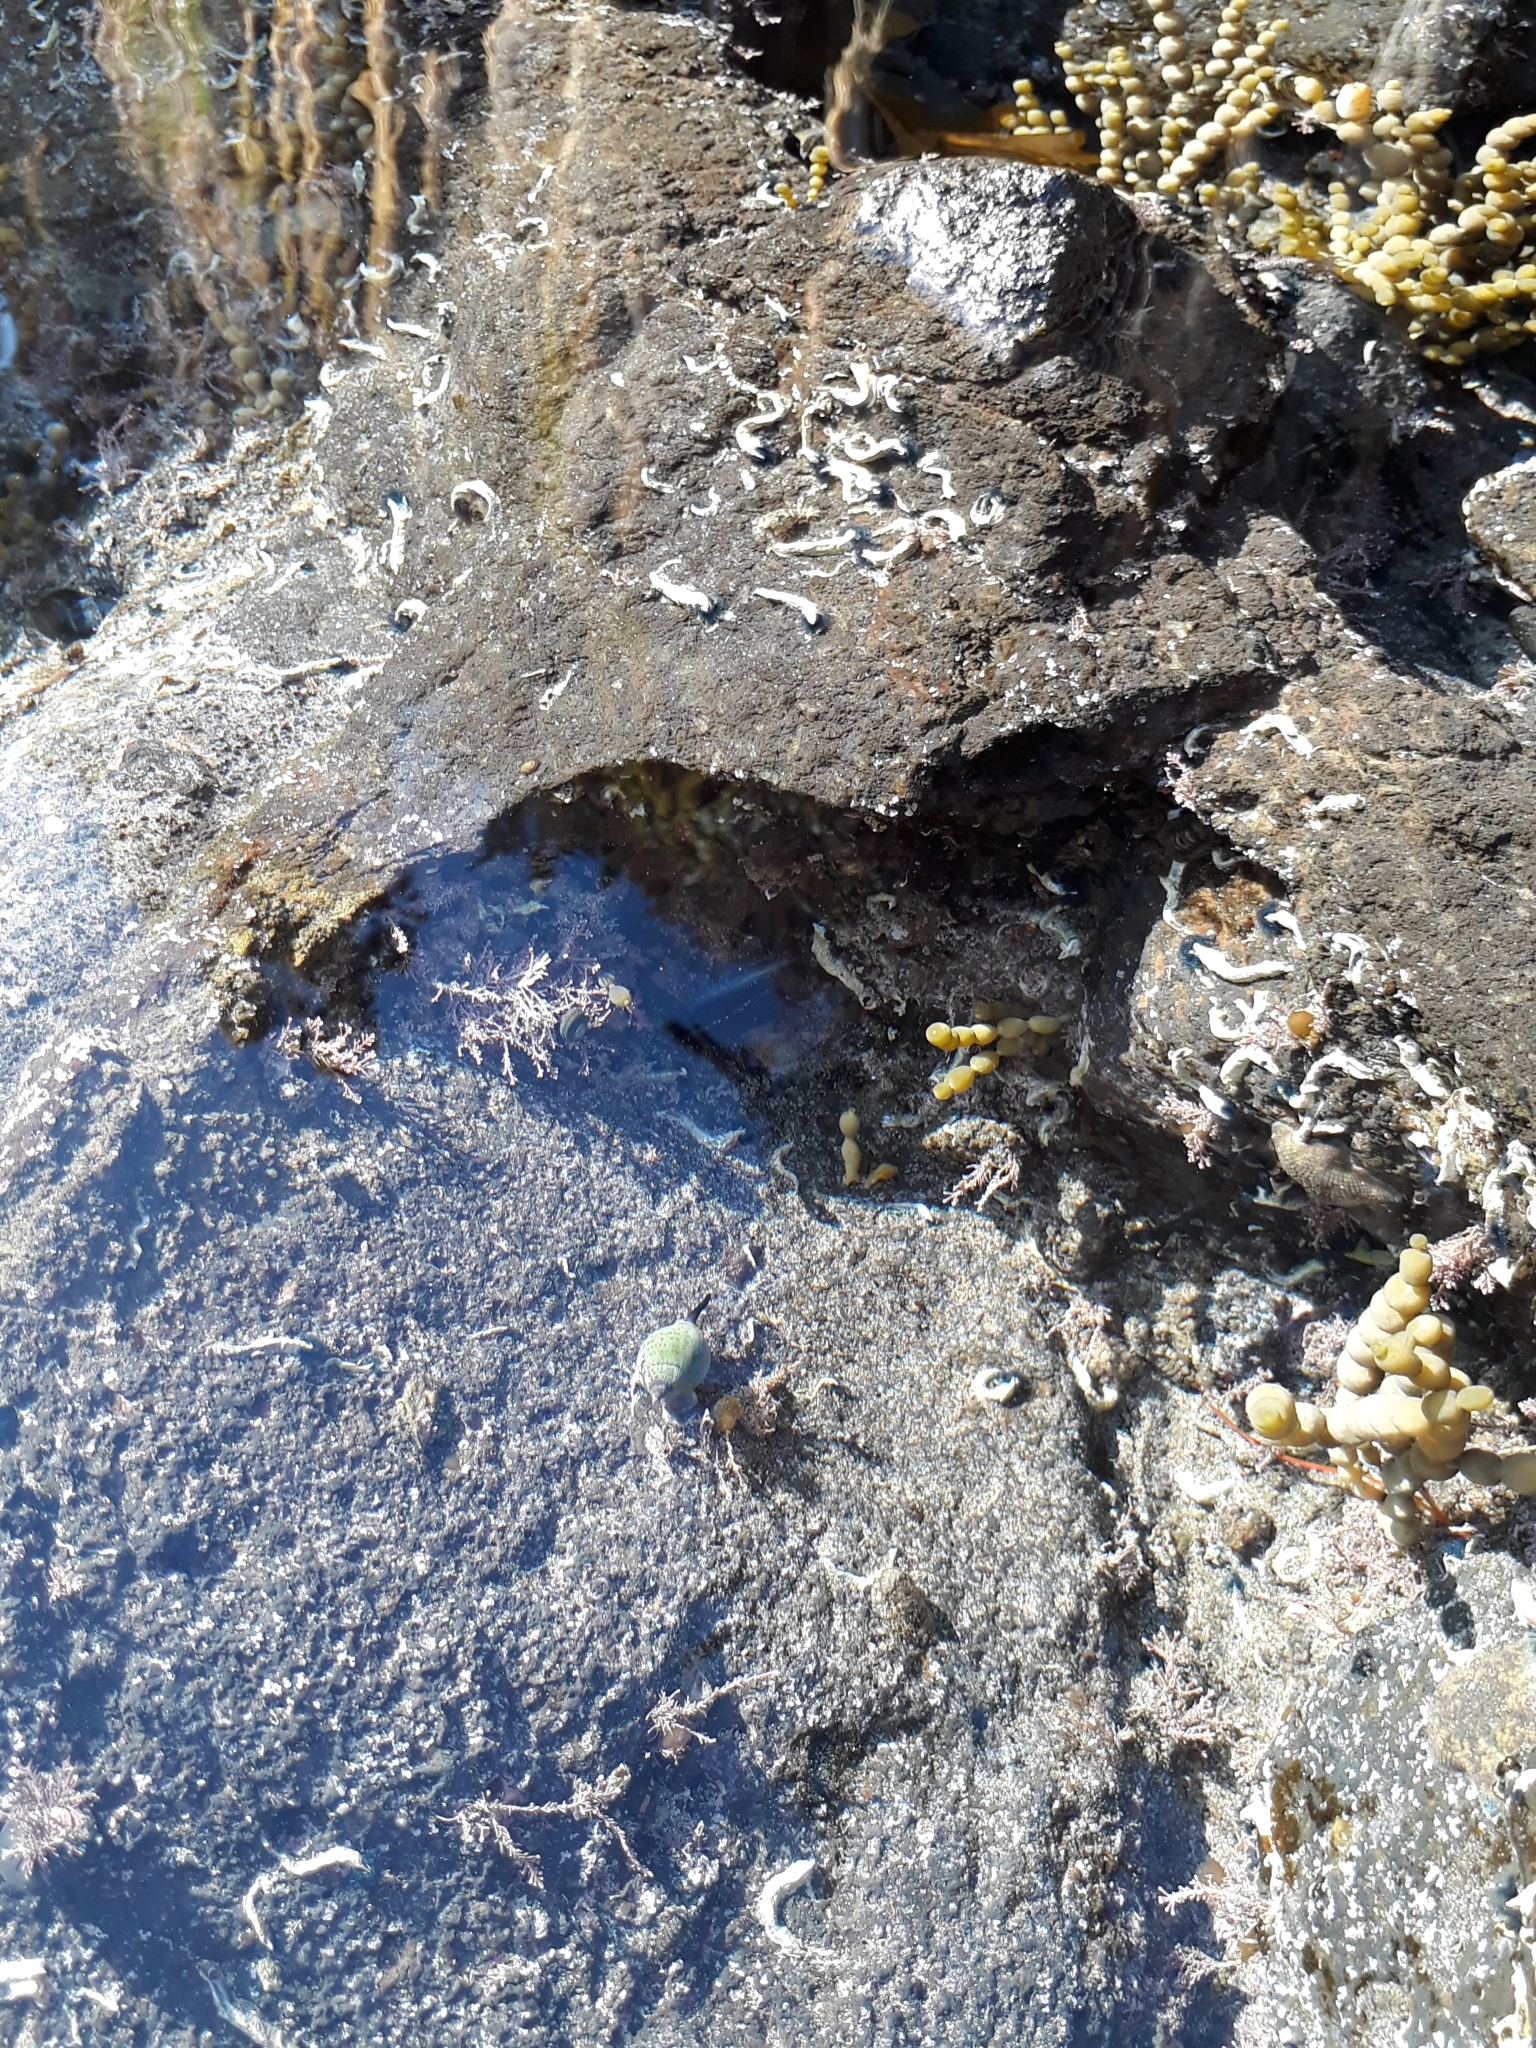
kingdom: Animalia
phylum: Mollusca
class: Gastropoda
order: Neogastropoda
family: Cominellidae
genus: Cominella
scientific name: Cominella maculosa
